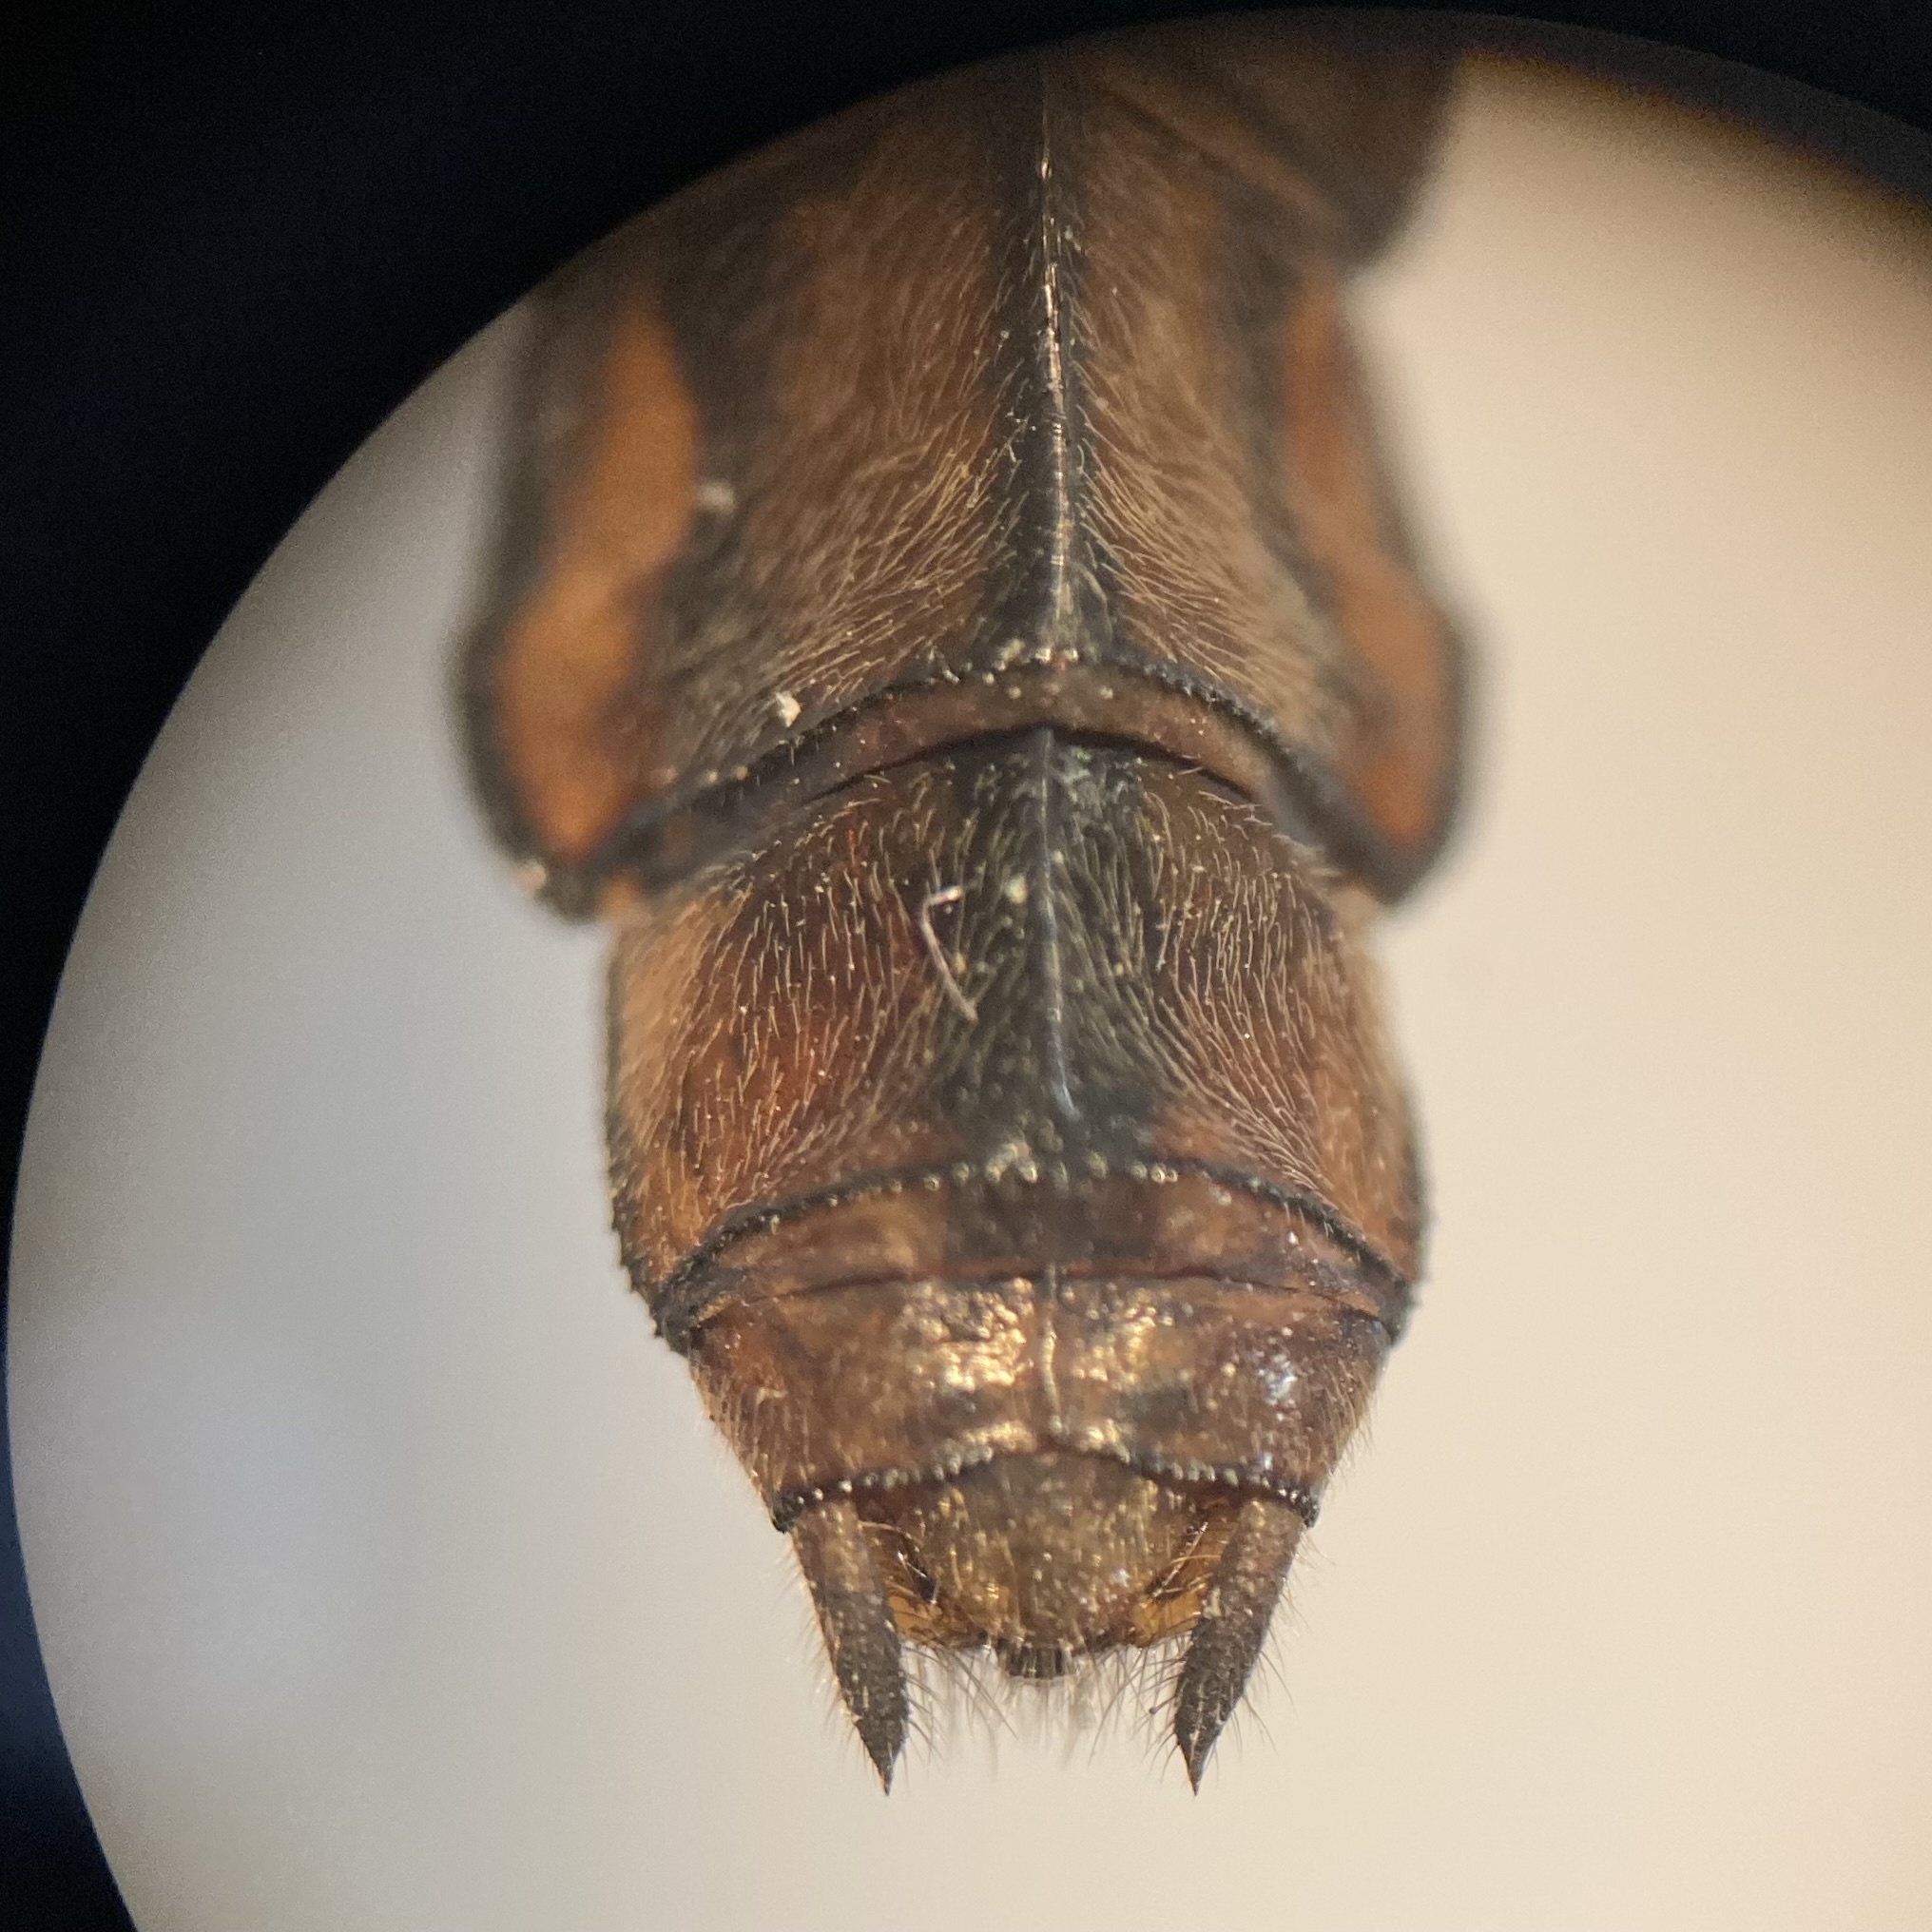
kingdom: Animalia
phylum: Arthropoda
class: Insecta
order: Odonata
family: Libellulidae
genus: Plathemis
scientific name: Plathemis lydia
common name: Common whitetail
